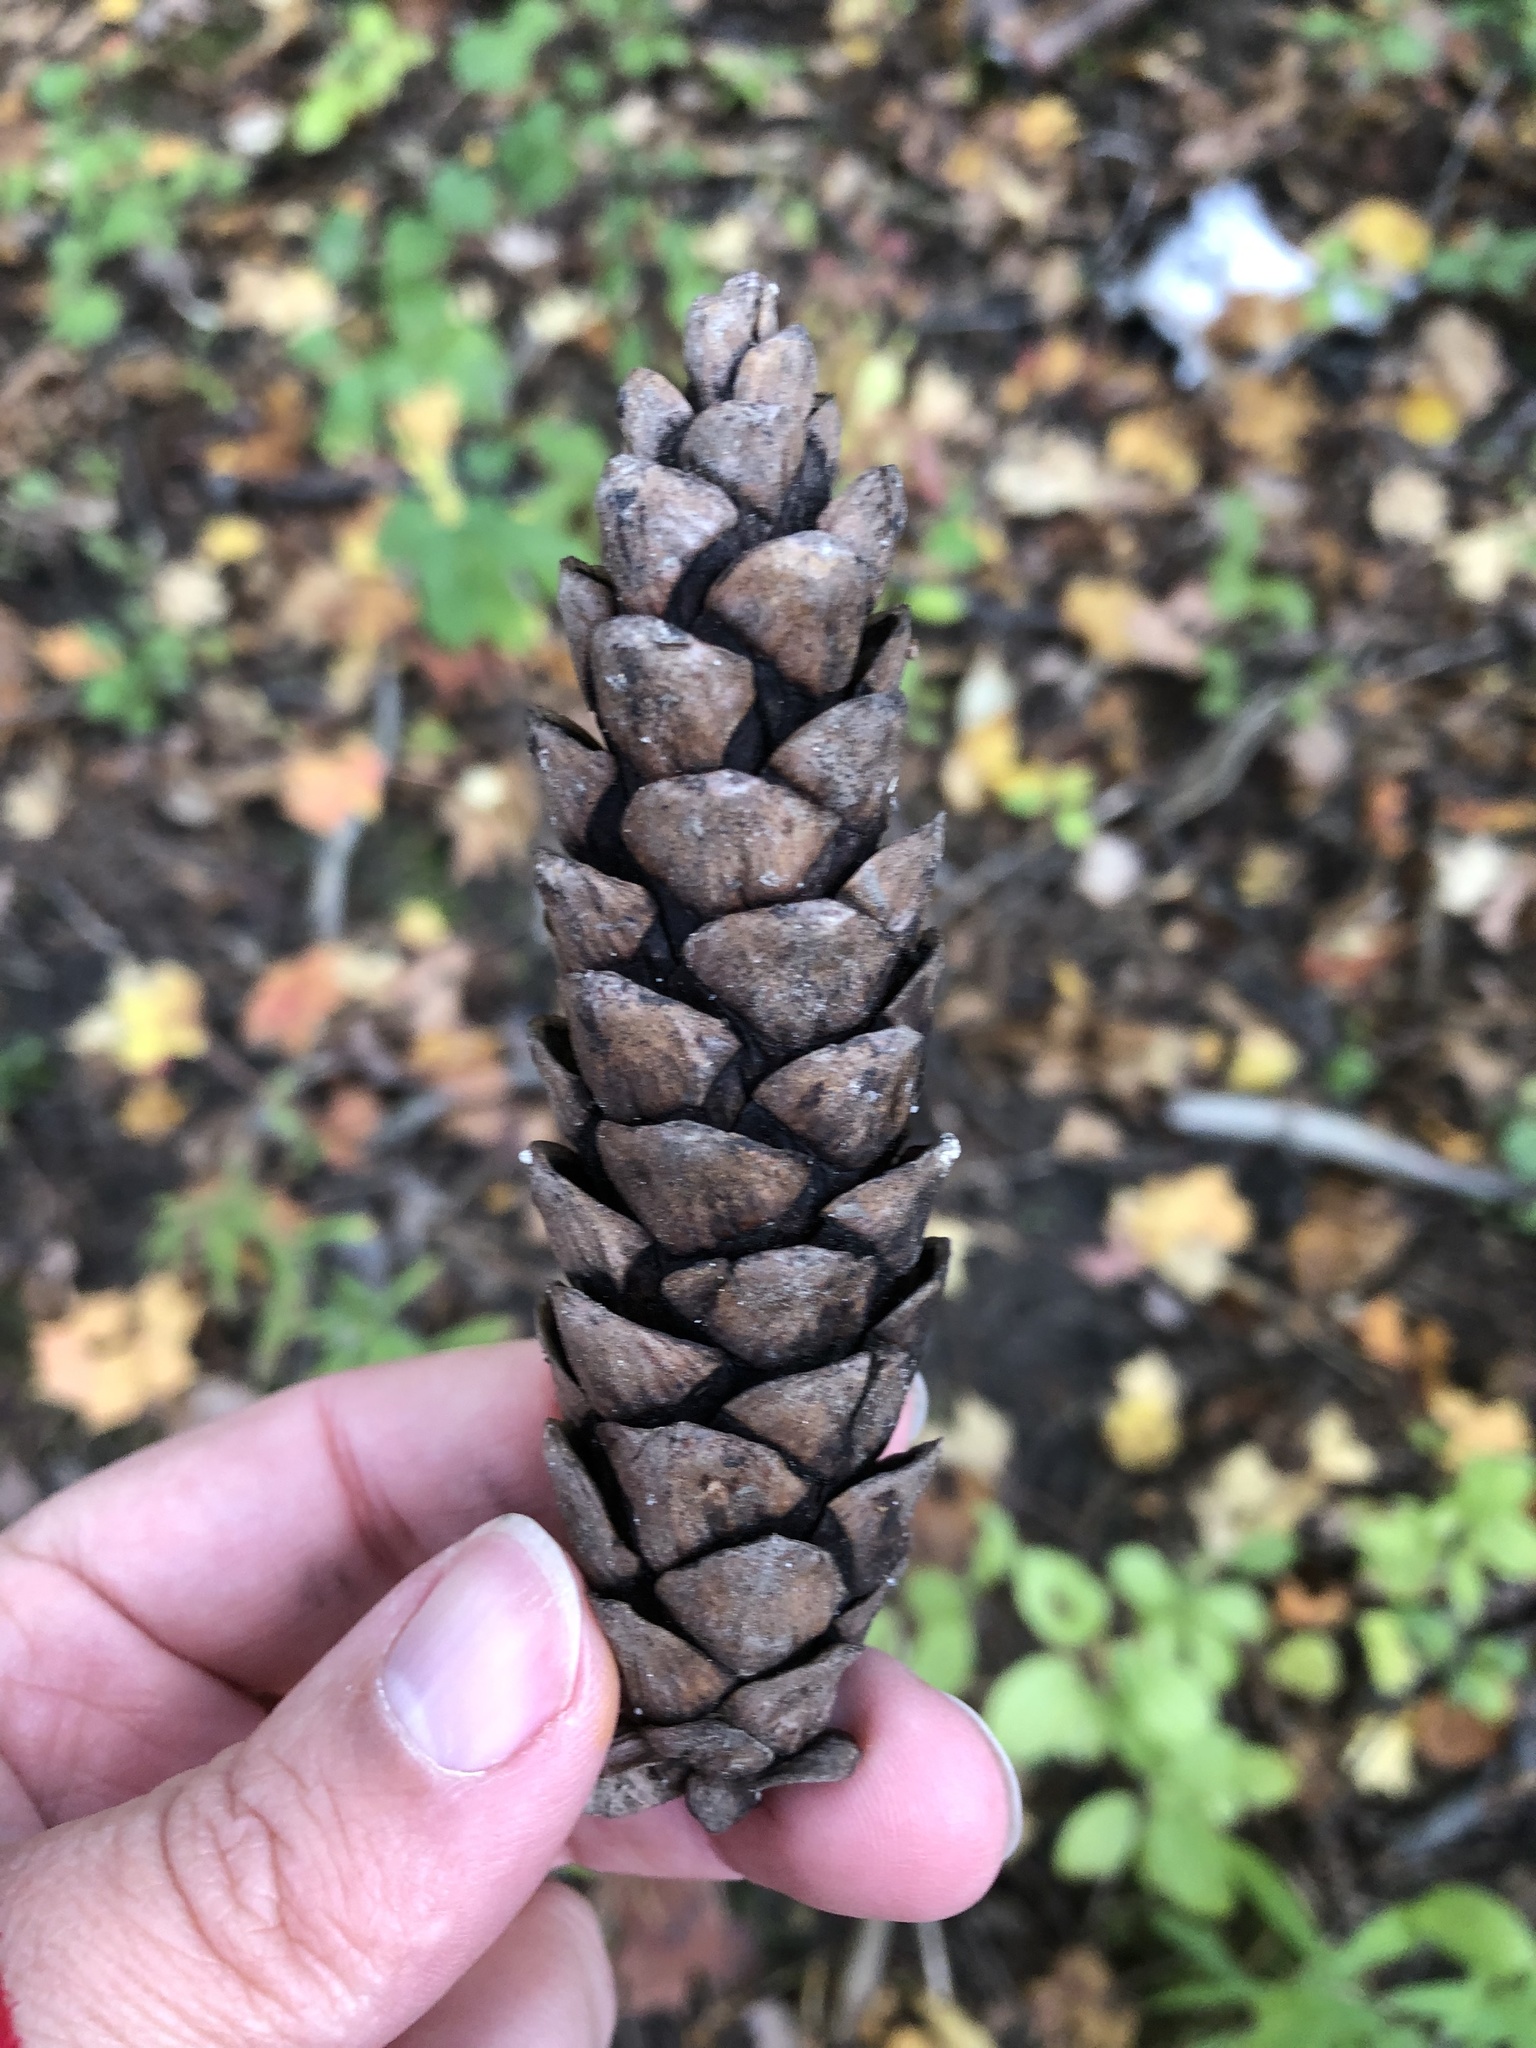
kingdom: Plantae
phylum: Tracheophyta
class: Pinopsida
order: Pinales
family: Pinaceae
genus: Pinus
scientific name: Pinus strobus
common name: Weymouth pine
